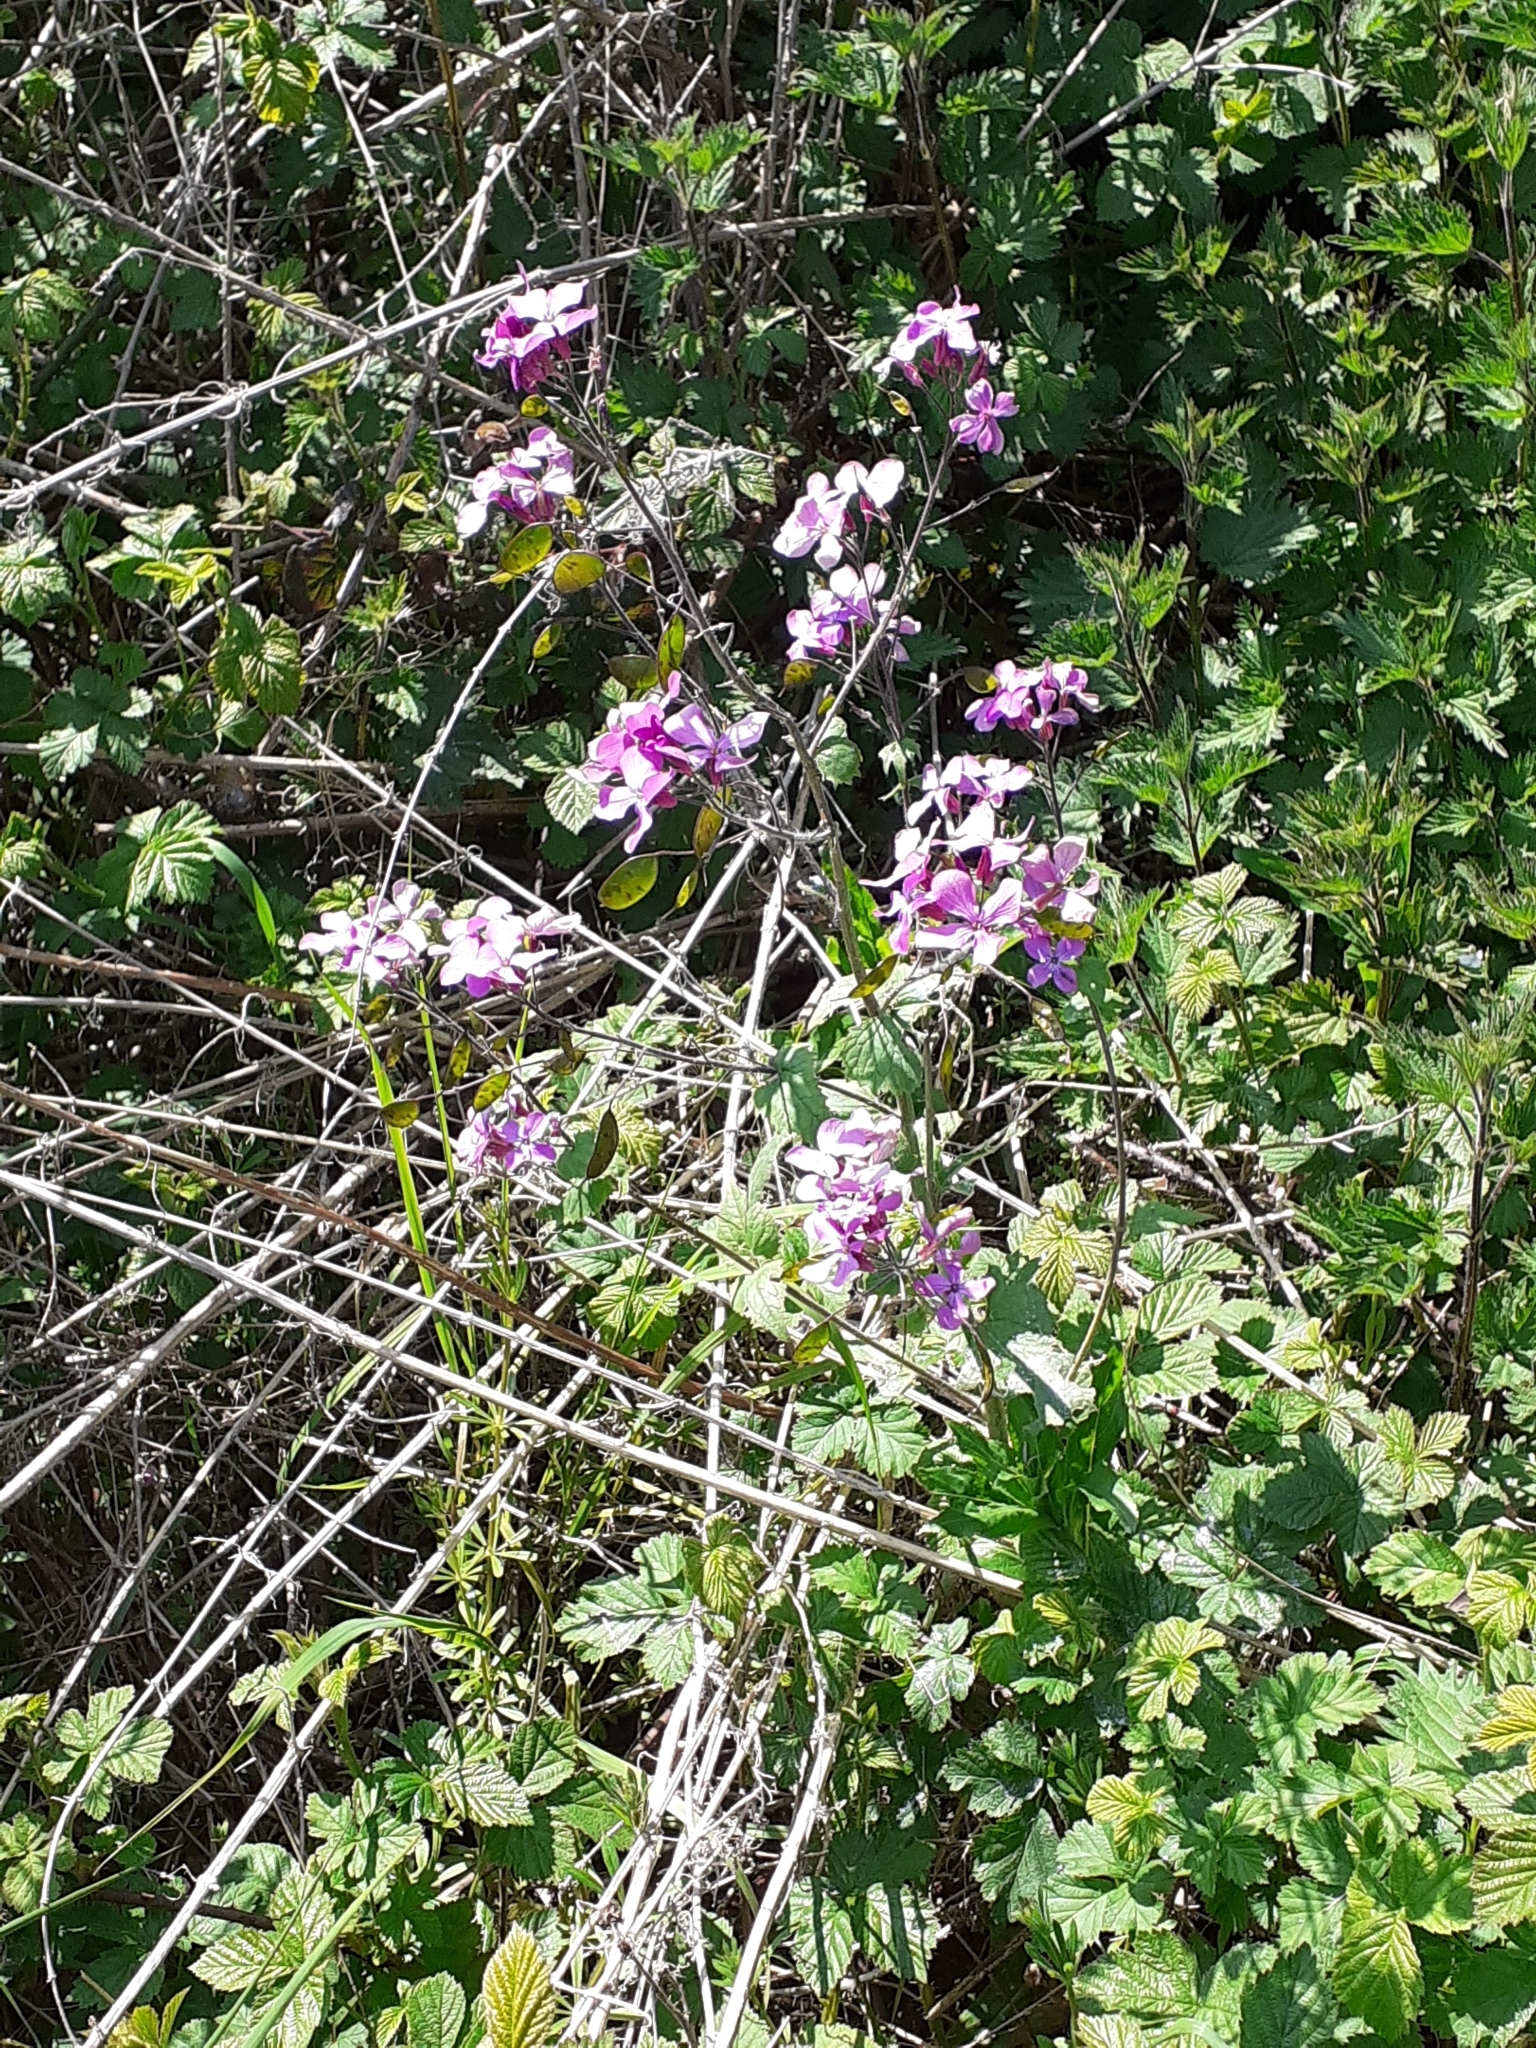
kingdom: Plantae
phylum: Tracheophyta
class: Magnoliopsida
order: Brassicales
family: Brassicaceae
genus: Lunaria
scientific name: Lunaria annua
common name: Honesty
